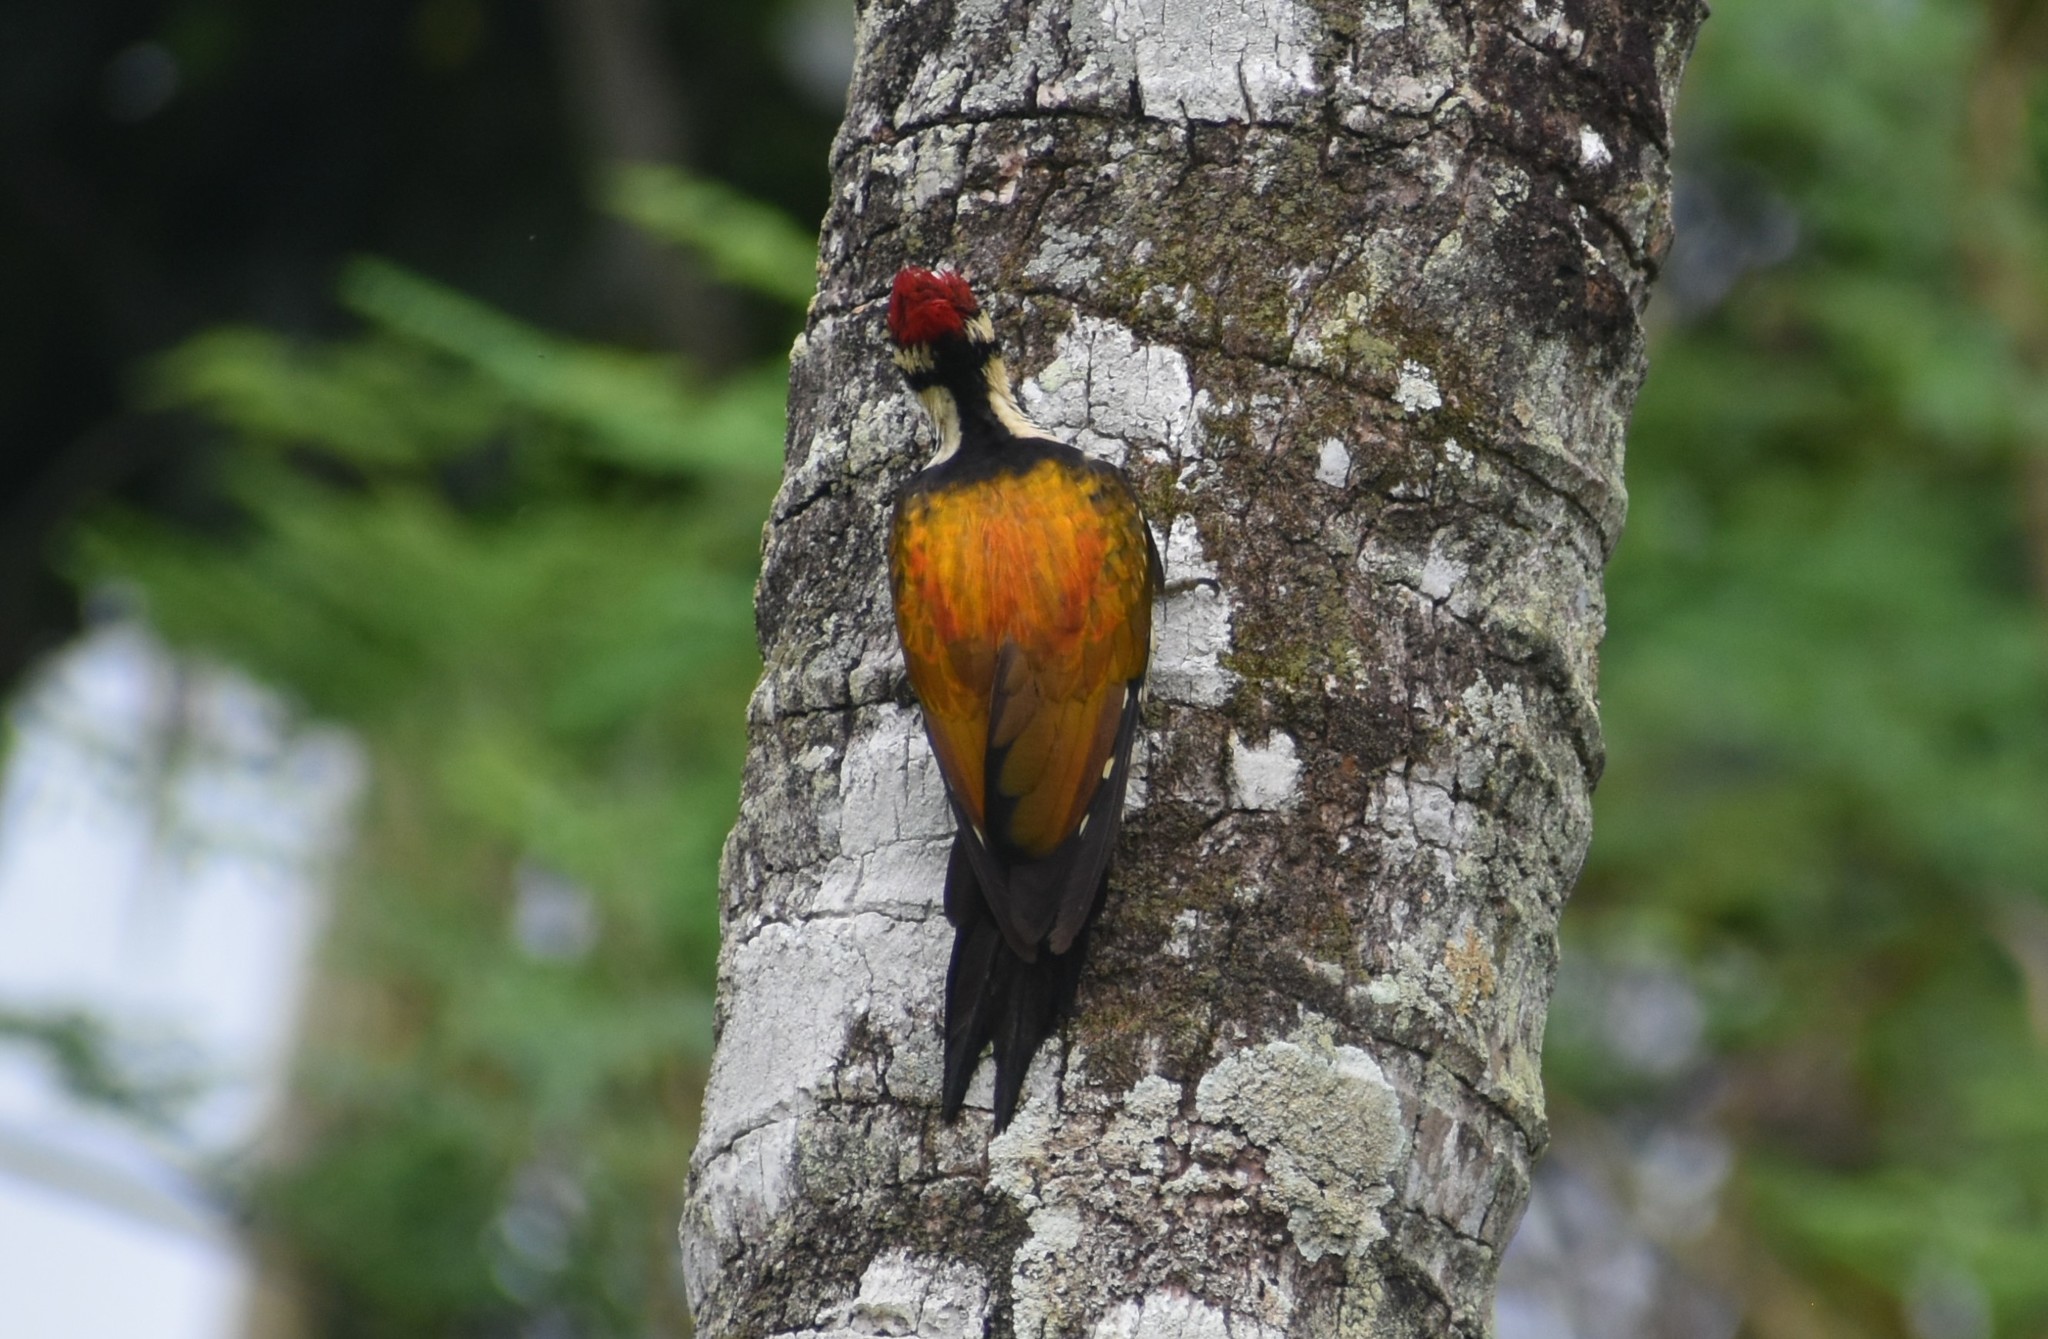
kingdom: Animalia
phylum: Chordata
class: Aves
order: Piciformes
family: Picidae
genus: Dinopium
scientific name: Dinopium benghalense
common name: Black-rumped flameback
